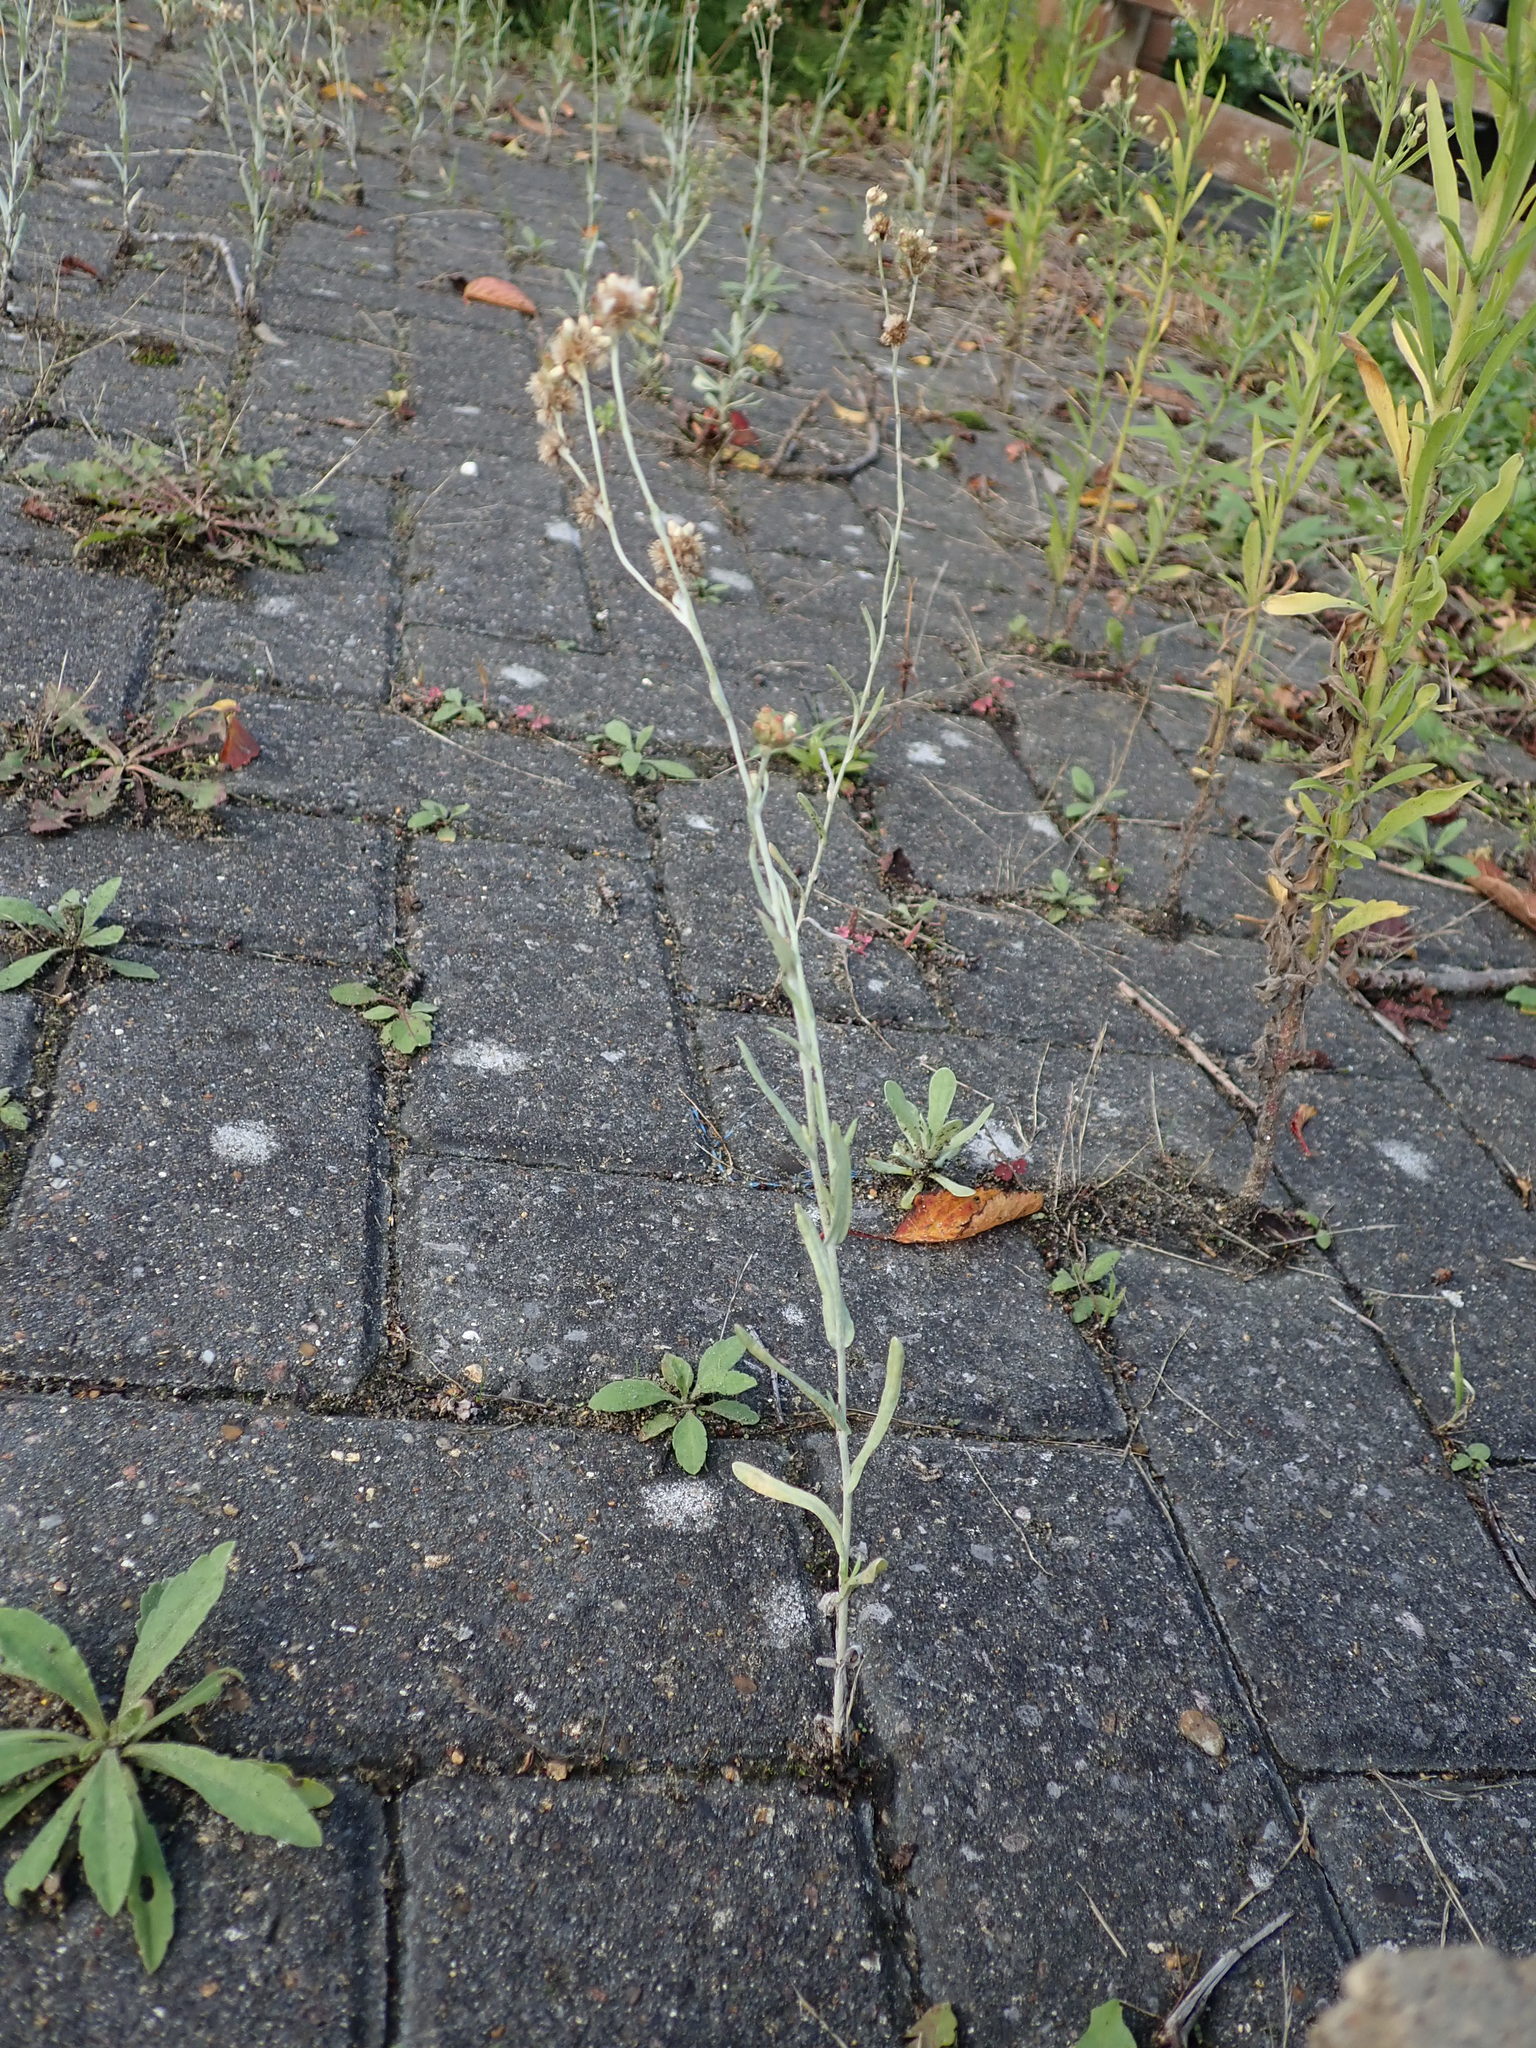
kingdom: Plantae
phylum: Tracheophyta
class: Magnoliopsida
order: Asterales
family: Asteraceae
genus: Helichrysum
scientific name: Helichrysum luteoalbum
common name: Daisy
